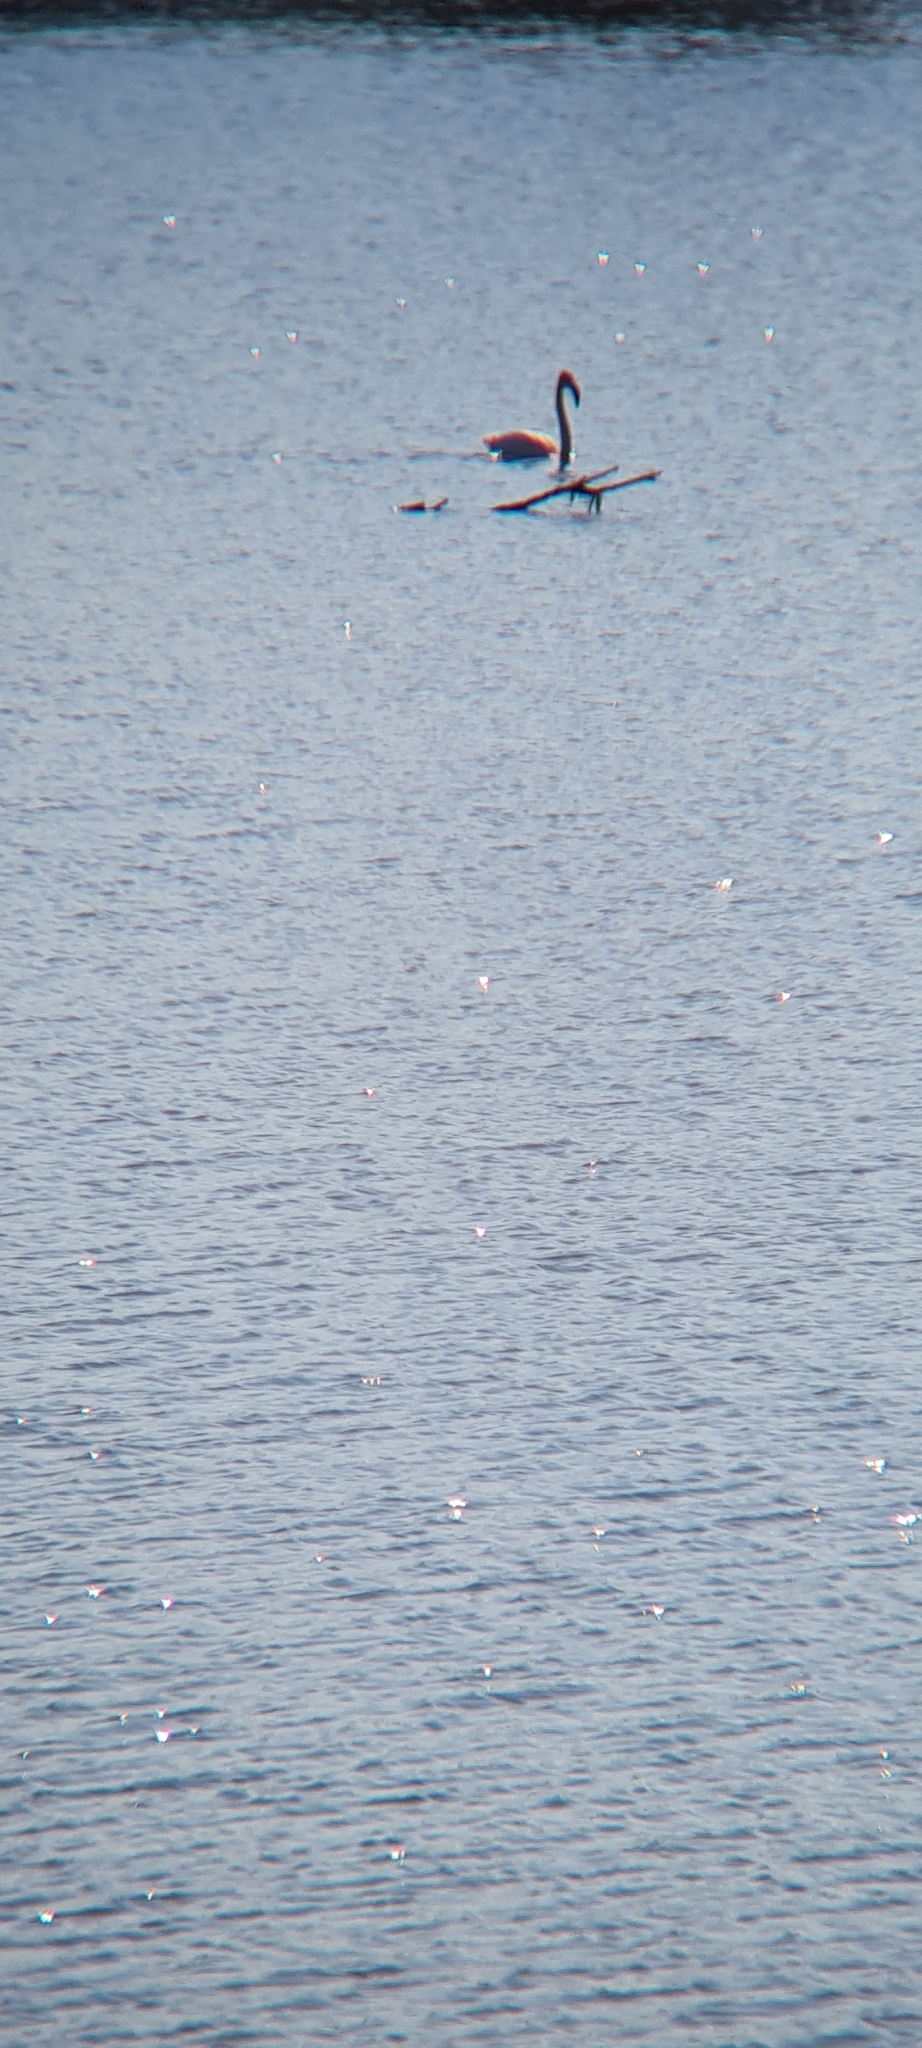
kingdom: Animalia
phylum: Chordata
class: Aves
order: Phoenicopteriformes
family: Phoenicopteridae
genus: Phoenicopterus
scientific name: Phoenicopterus roseus
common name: Greater flamingo
